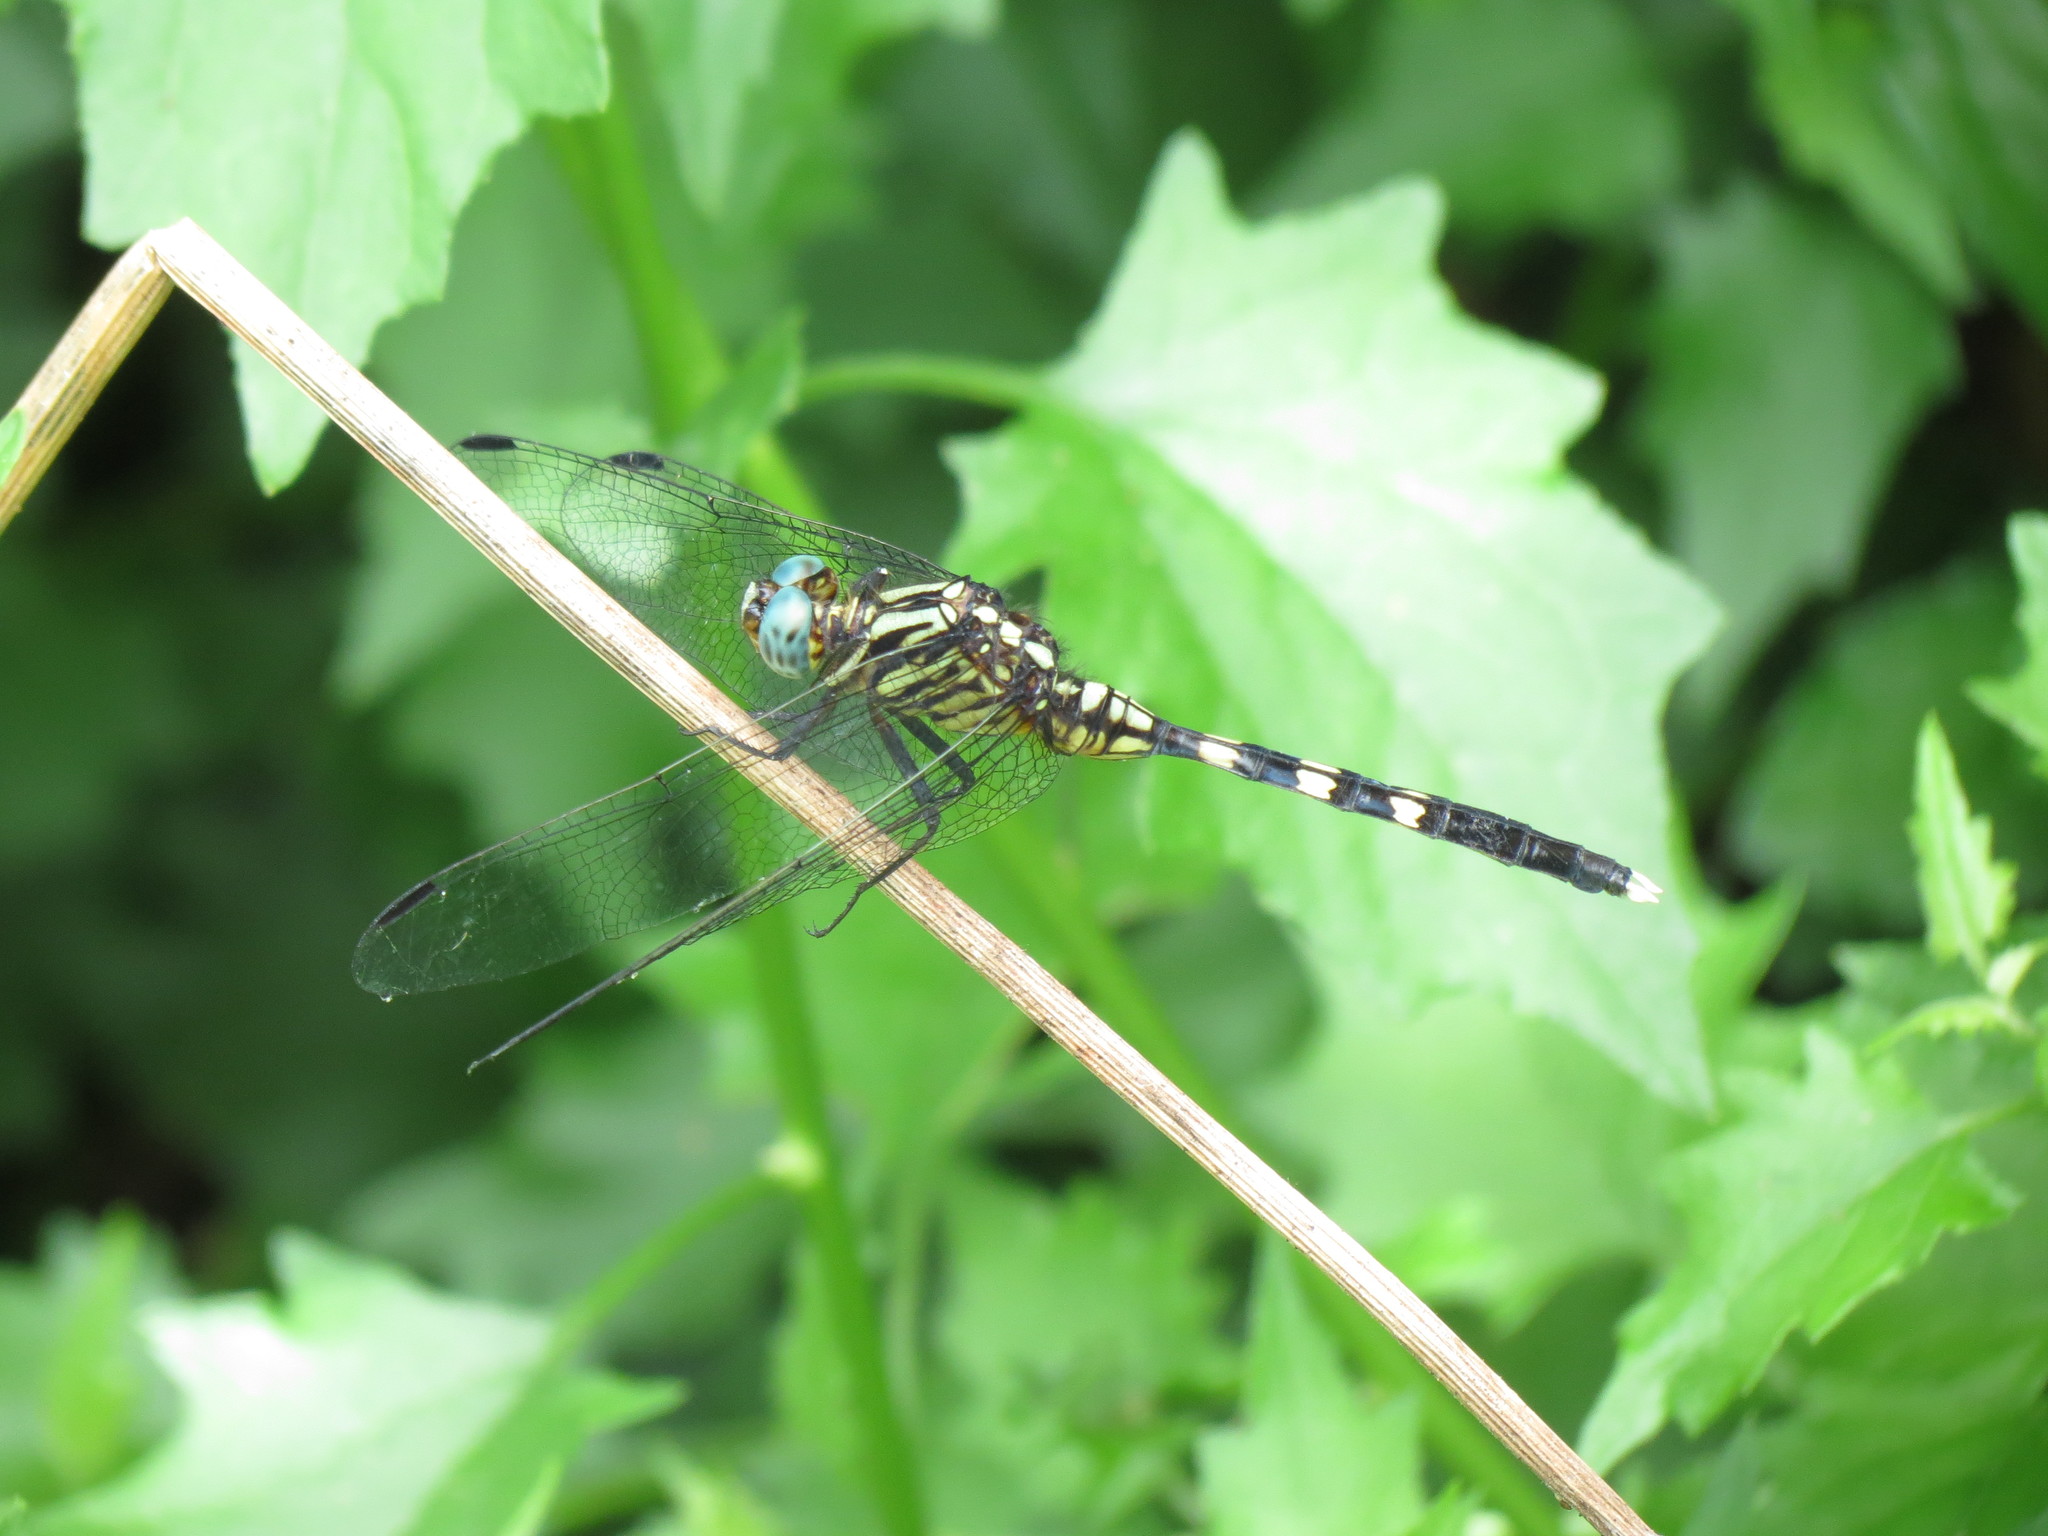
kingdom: Animalia
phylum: Arthropoda
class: Insecta
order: Odonata
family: Libellulidae
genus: Orthetrum
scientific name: Orthetrum julia
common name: Julia skimmer
